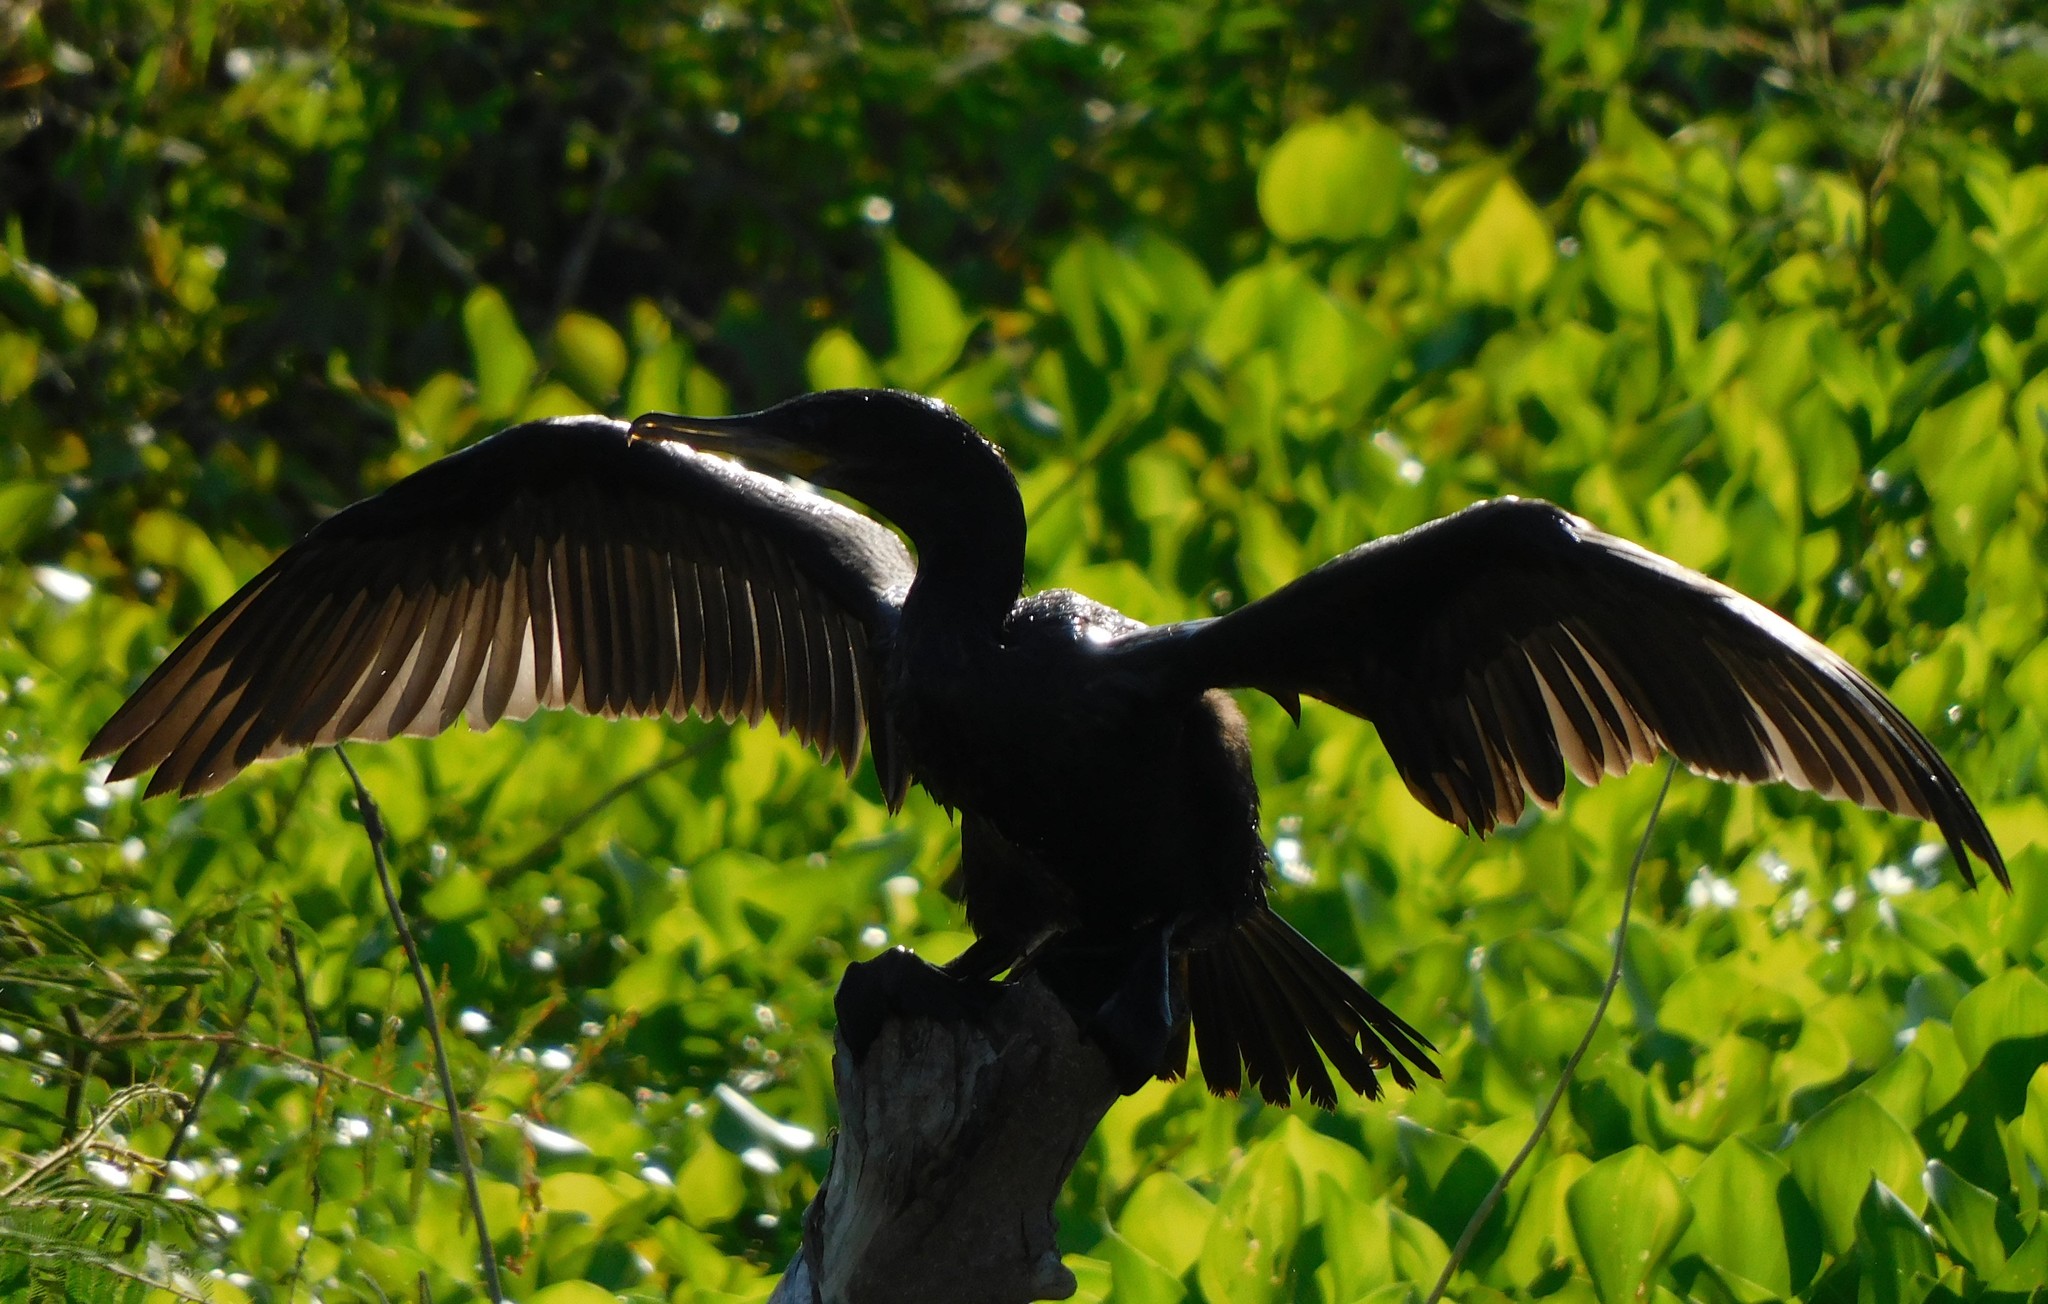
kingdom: Animalia
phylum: Chordata
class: Aves
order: Suliformes
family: Phalacrocoracidae
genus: Phalacrocorax
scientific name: Phalacrocorax brasilianus
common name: Neotropic cormorant
